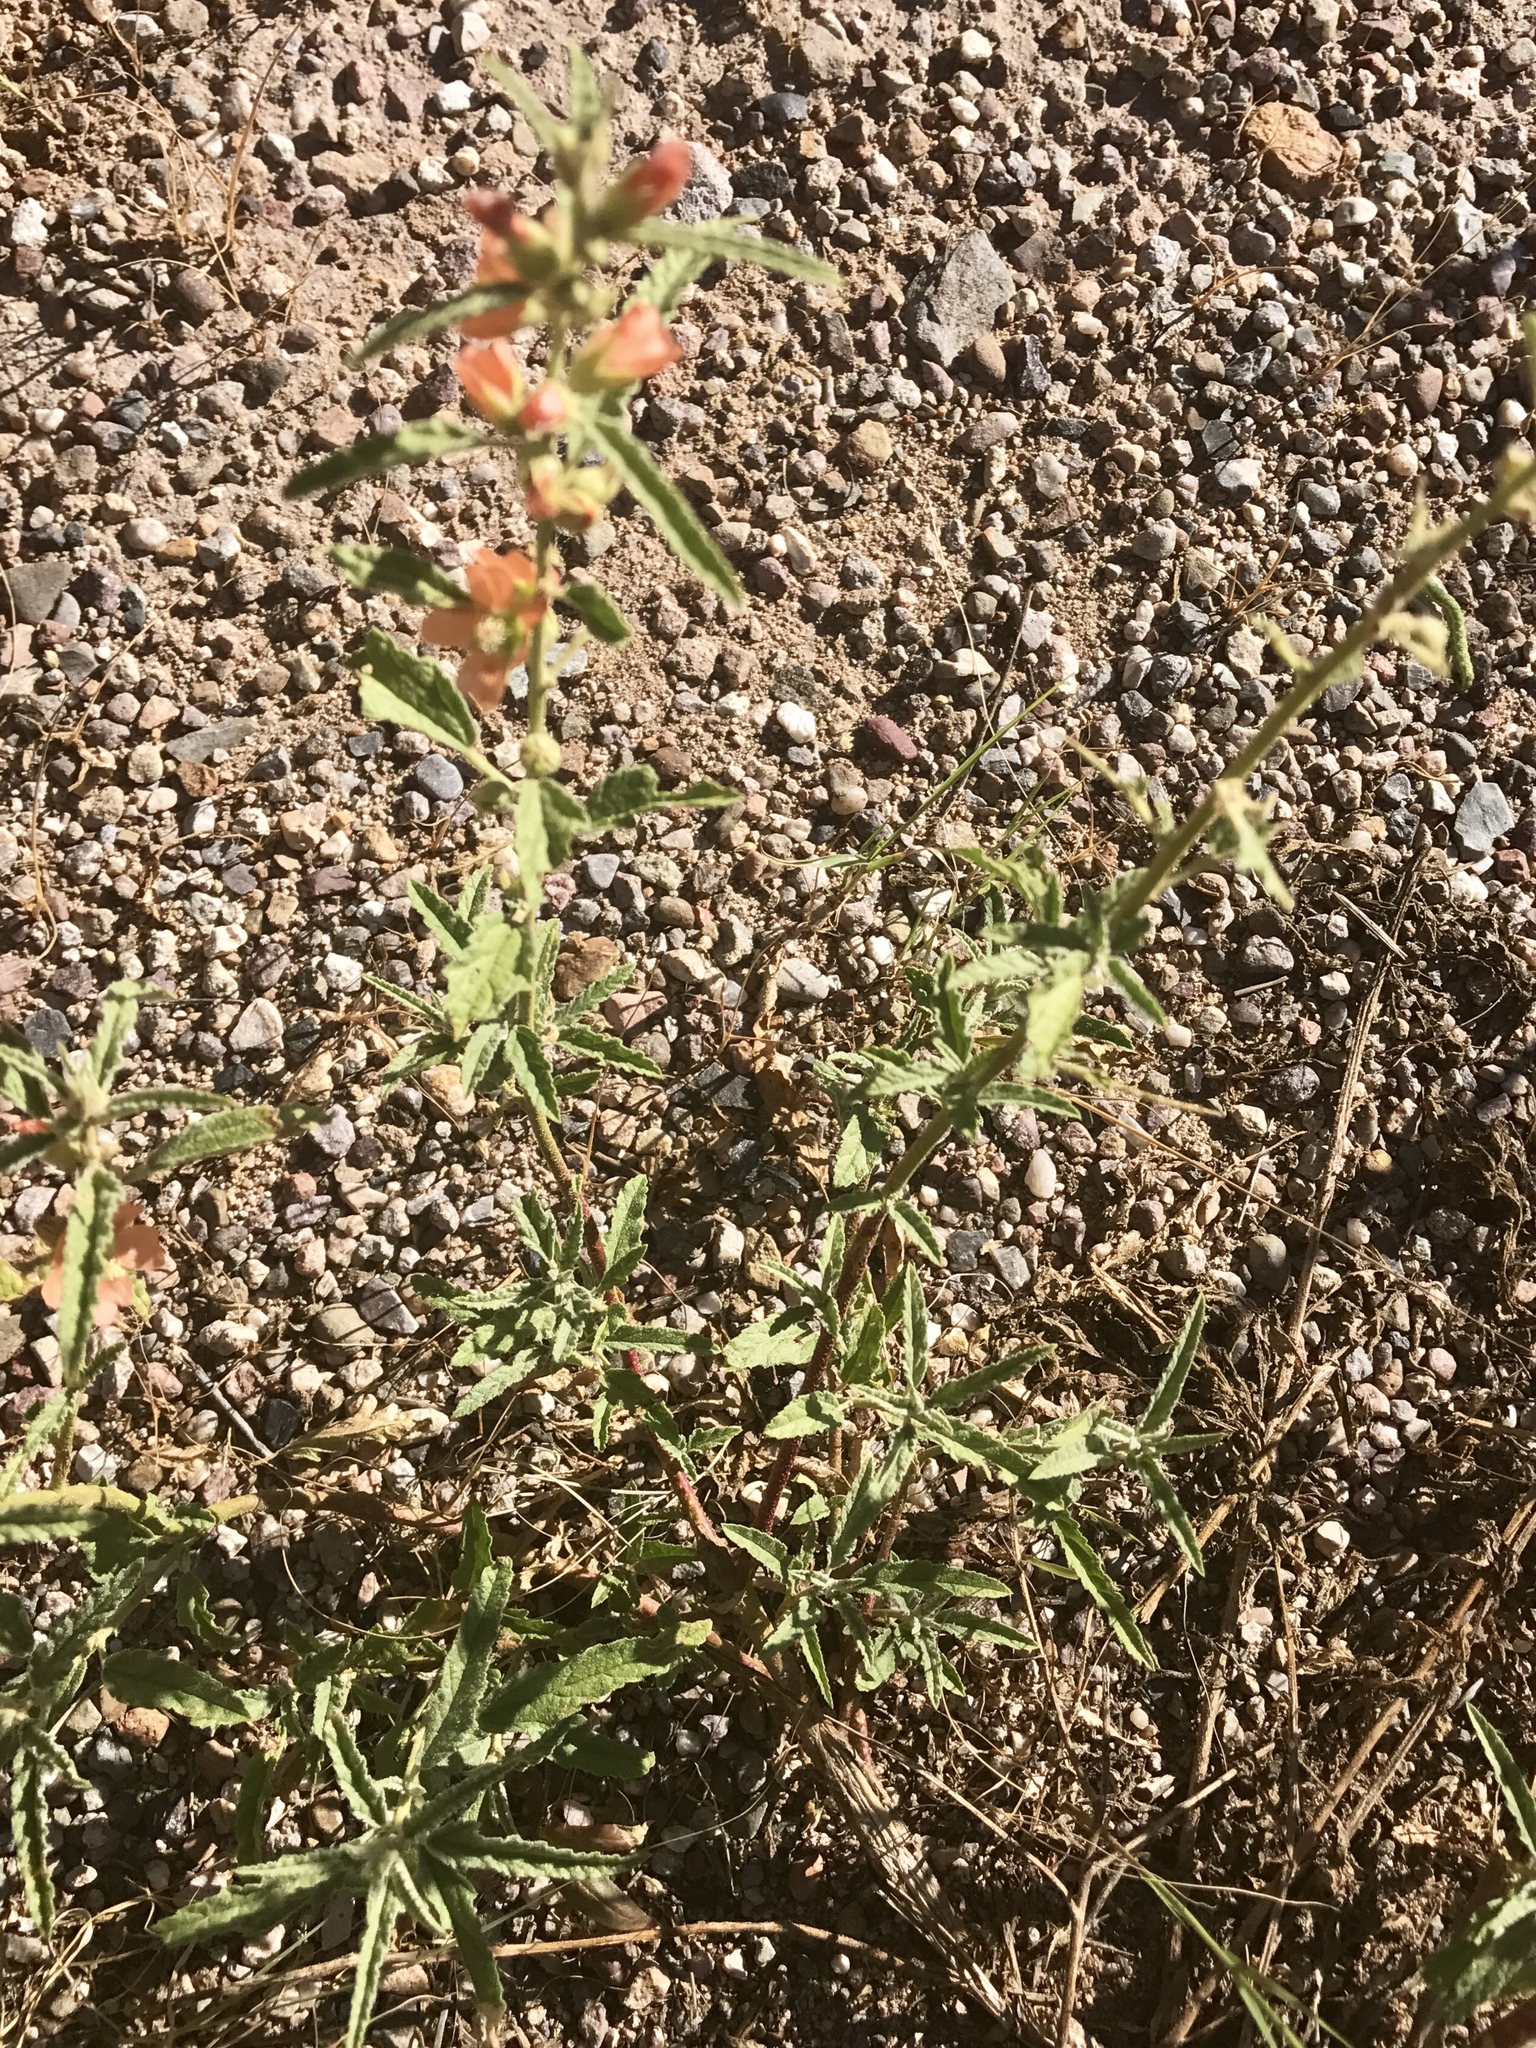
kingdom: Plantae
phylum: Tracheophyta
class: Magnoliopsida
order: Malvales
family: Malvaceae
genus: Sphaeralcea
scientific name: Sphaeralcea angustifolia
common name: Copper globe-mallow
